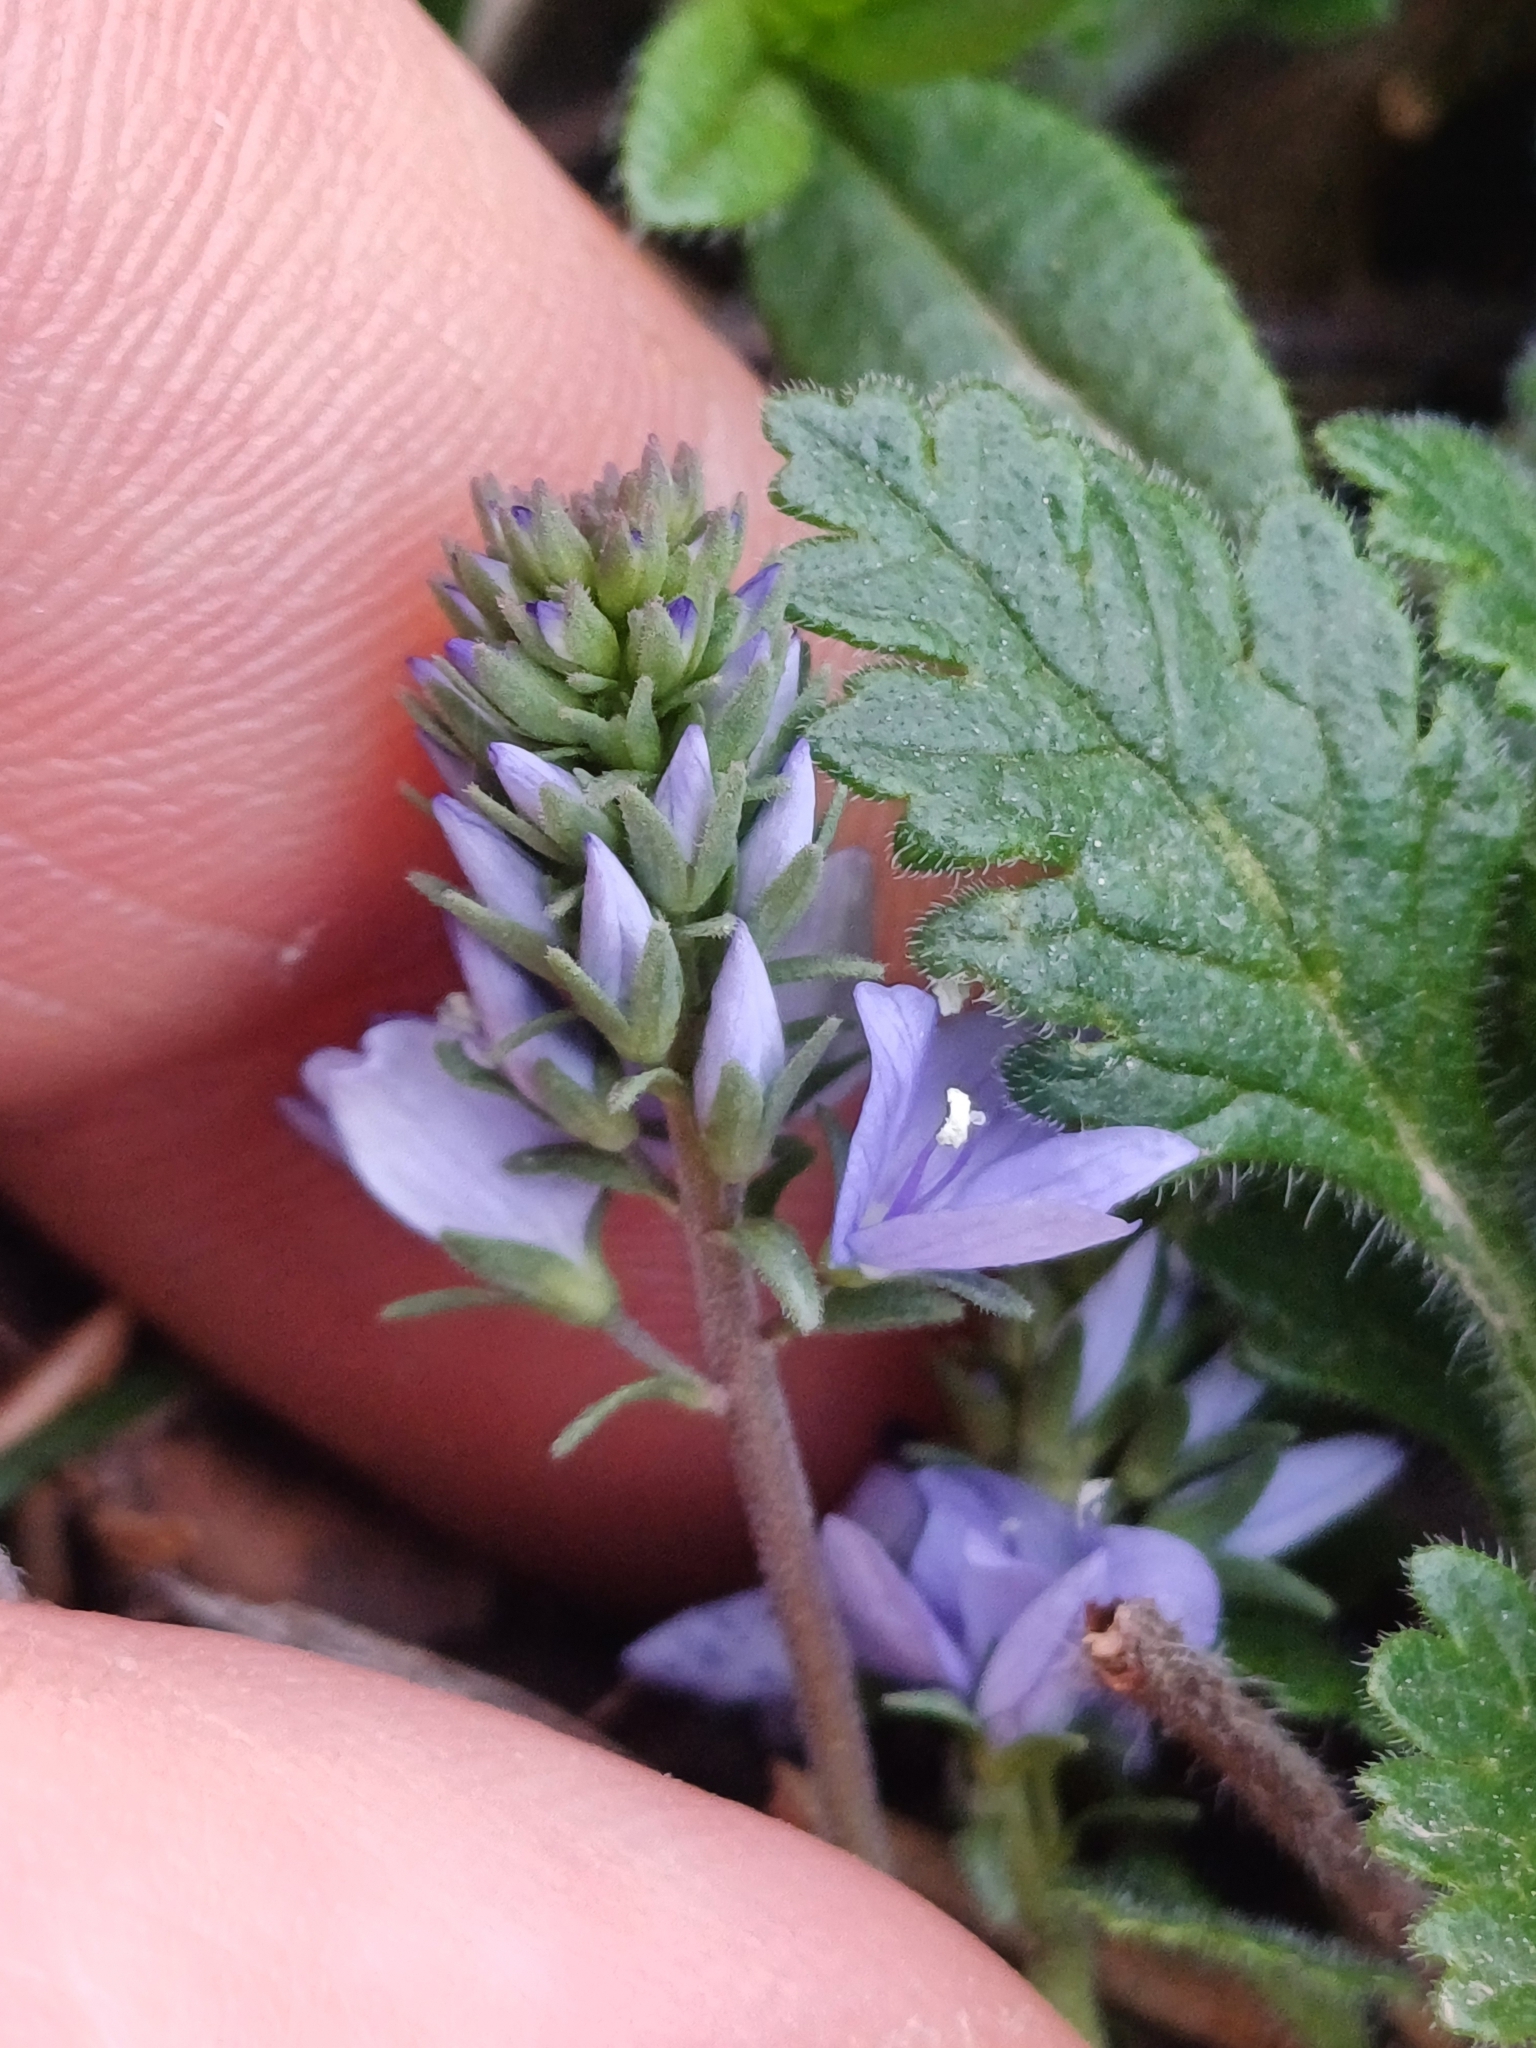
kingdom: Plantae
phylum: Tracheophyta
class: Magnoliopsida
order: Lamiales
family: Plantaginaceae
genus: Veronica
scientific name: Veronica prostrata
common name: Prostrate speedwell
